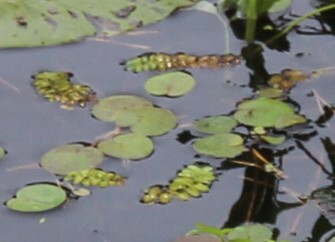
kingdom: Plantae
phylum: Tracheophyta
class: Polypodiopsida
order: Salviniales
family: Salviniaceae
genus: Salvinia
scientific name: Salvinia natans
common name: Floating fern
